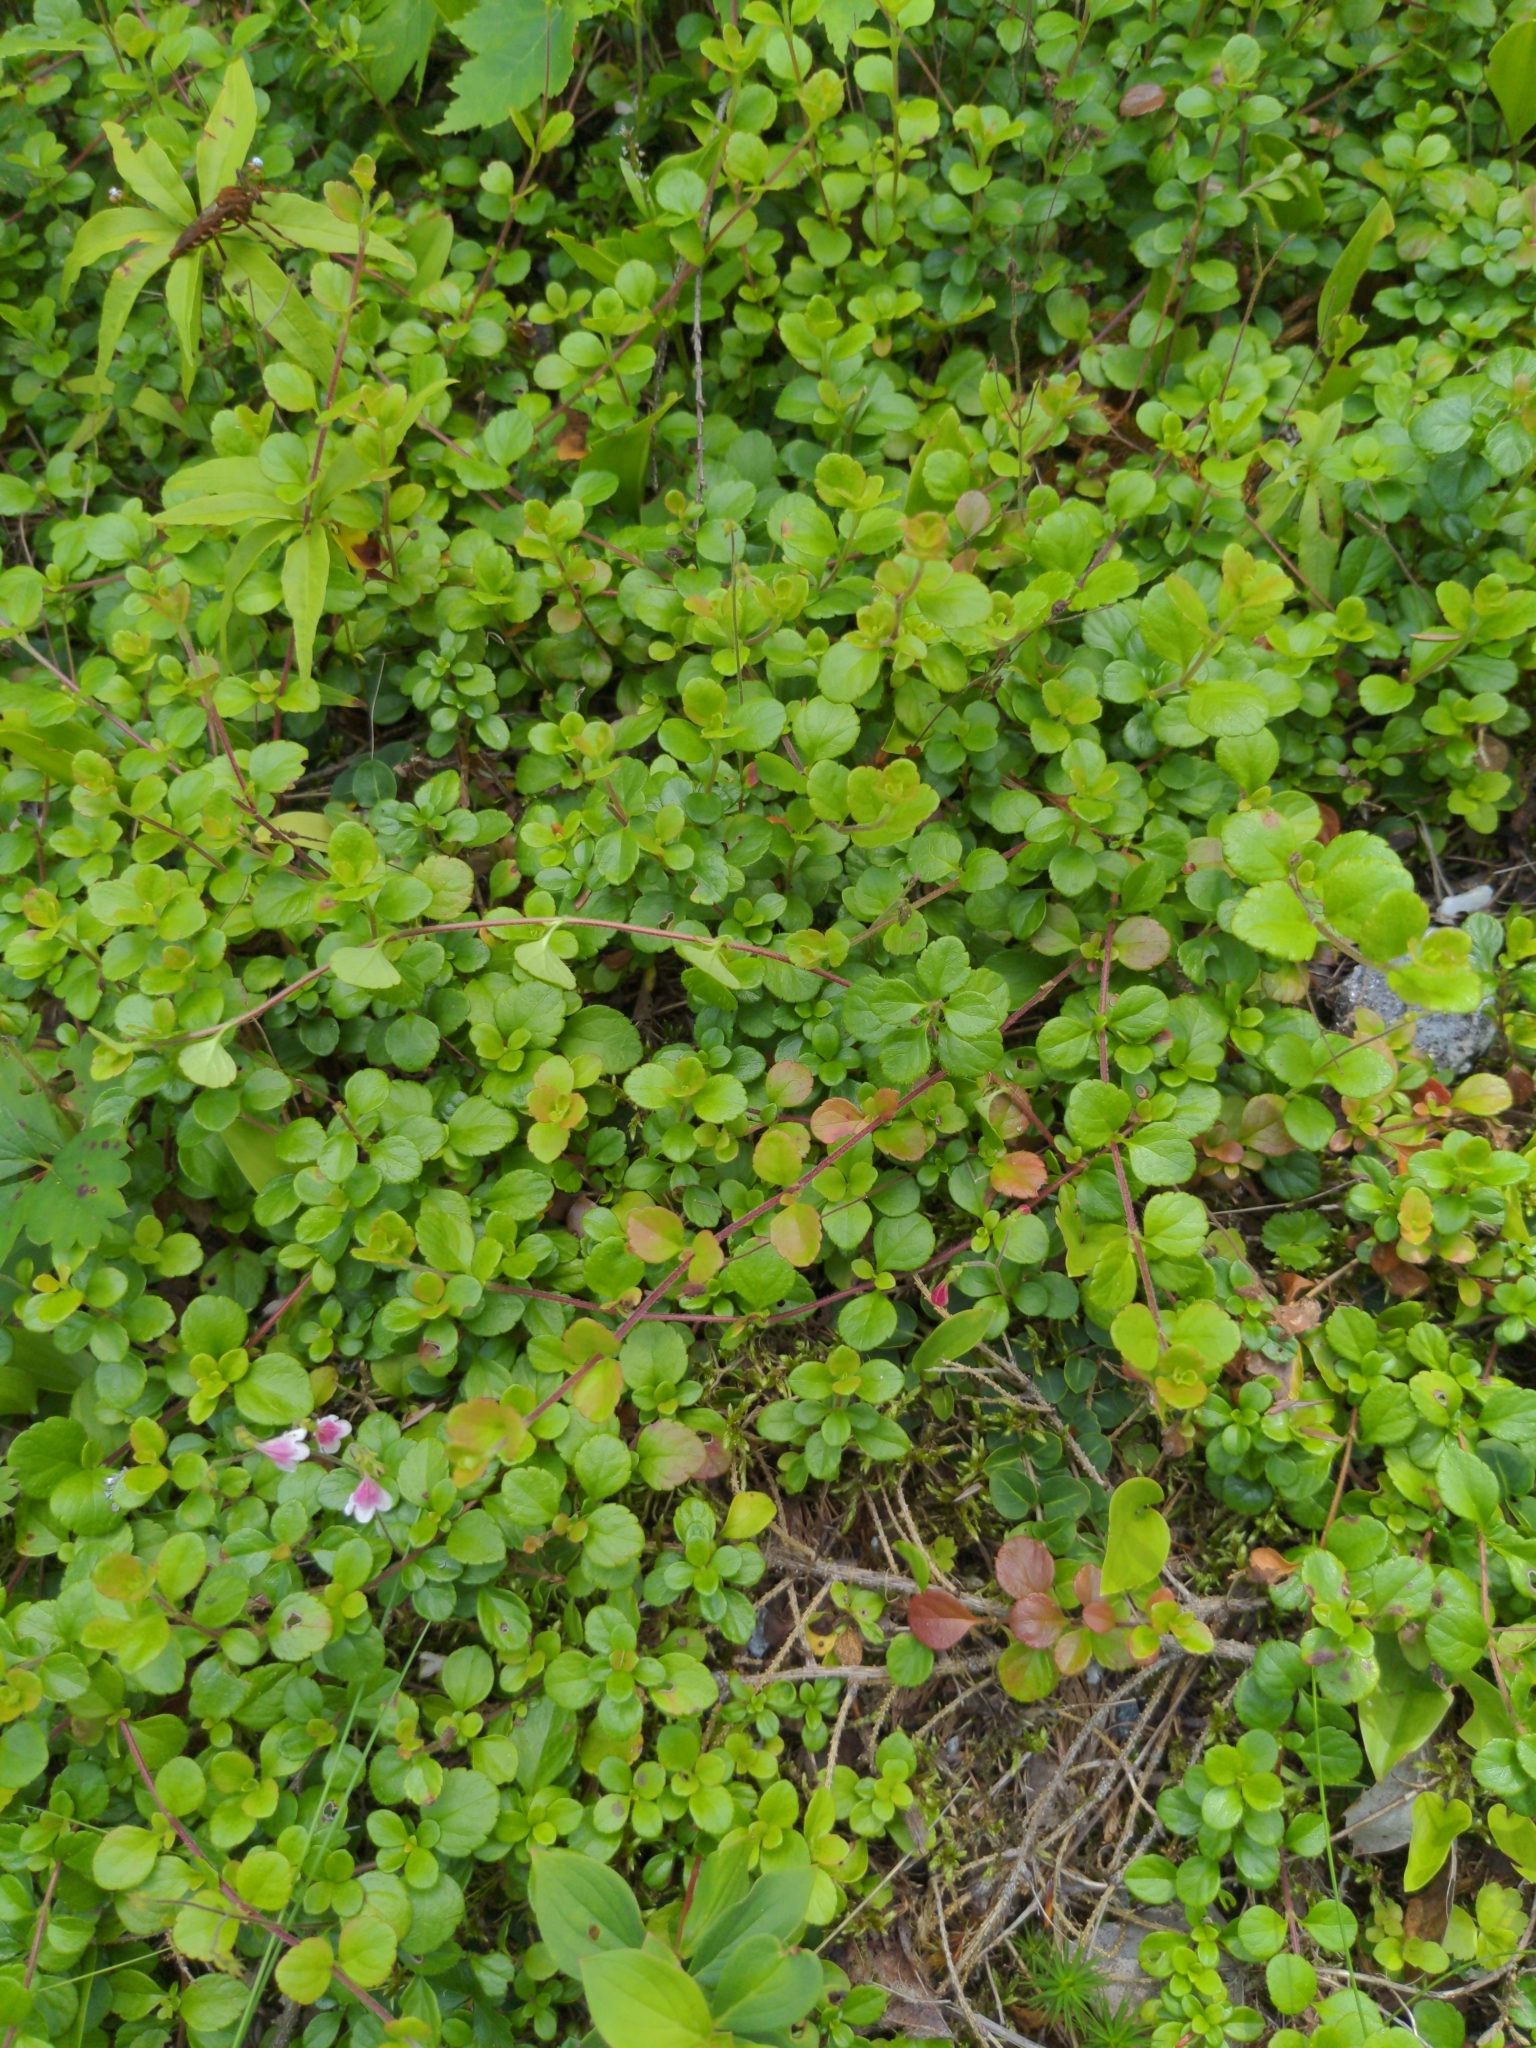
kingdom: Plantae
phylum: Tracheophyta
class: Magnoliopsida
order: Dipsacales
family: Caprifoliaceae
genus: Linnaea
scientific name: Linnaea borealis
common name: Twinflower
